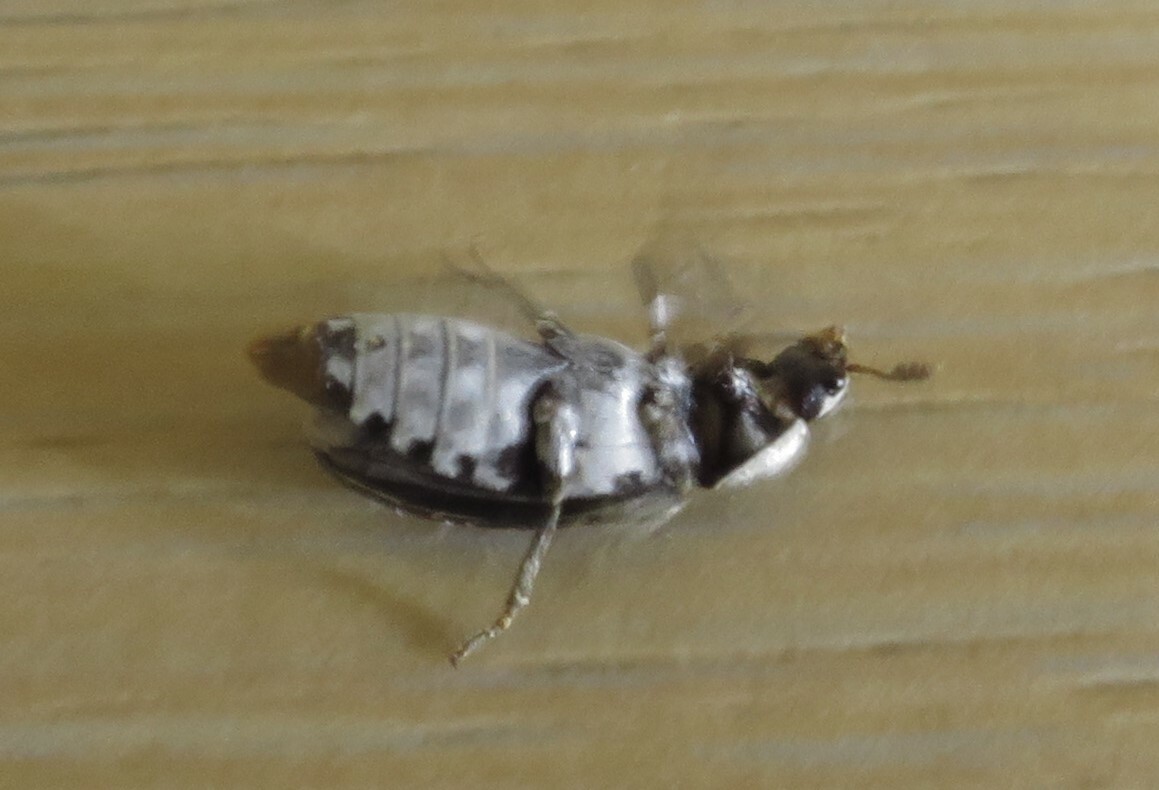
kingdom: Animalia
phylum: Arthropoda
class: Insecta
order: Coleoptera
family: Dermestidae
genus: Dermestes
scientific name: Dermestes maculatus
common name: Hide beetle
